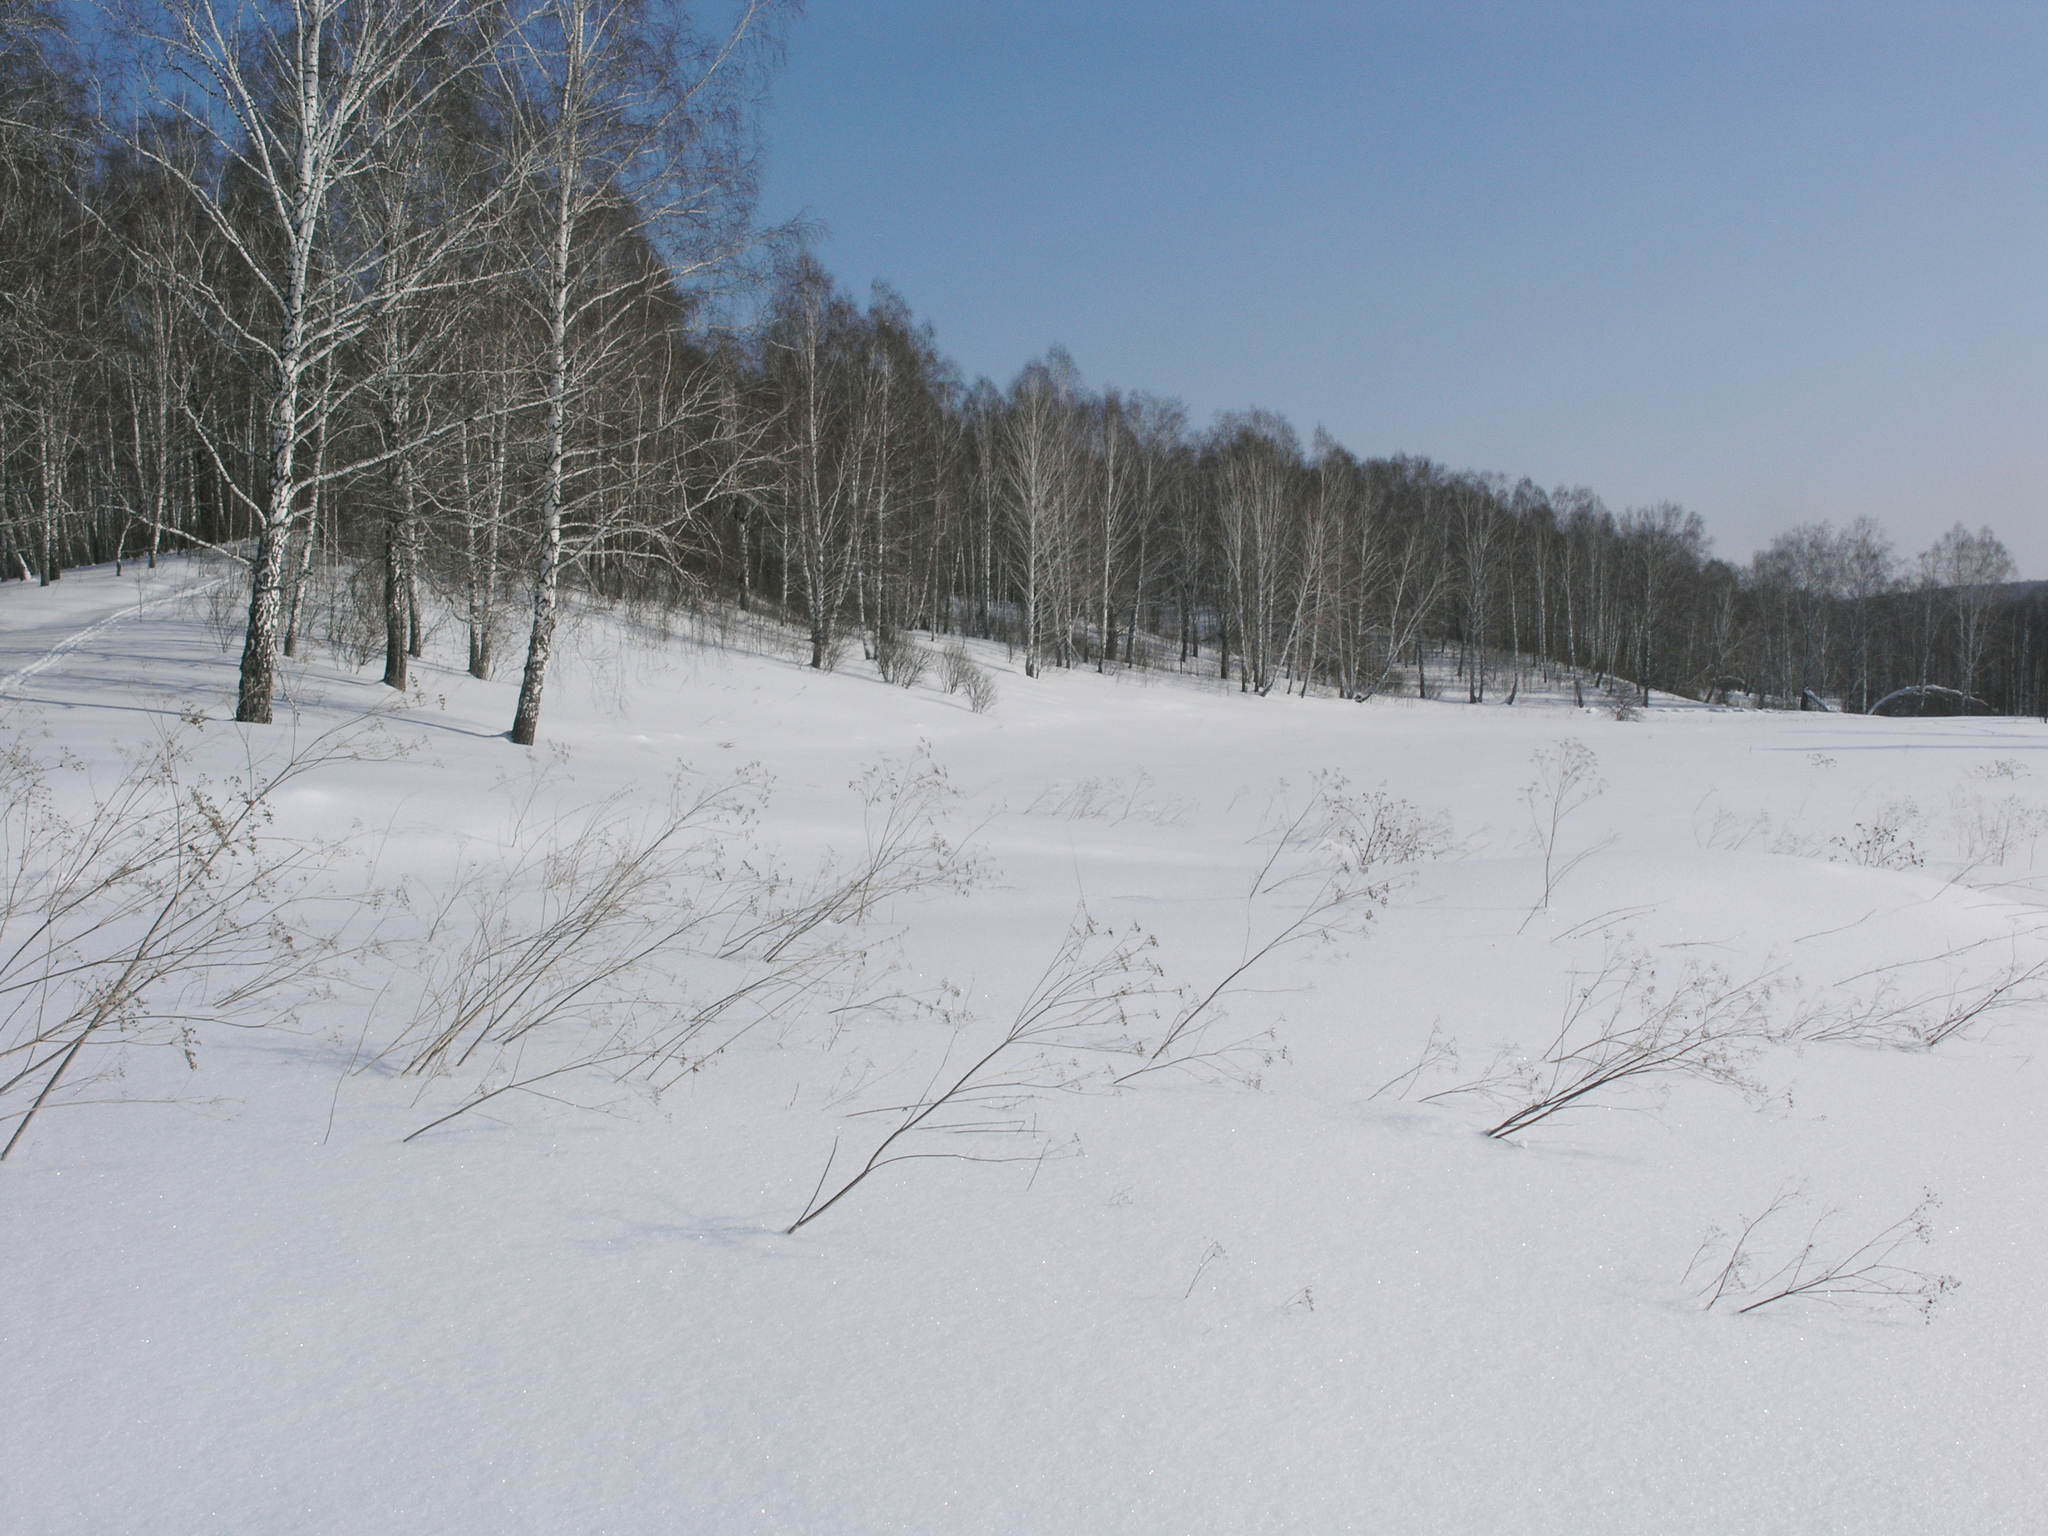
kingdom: Plantae
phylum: Tracheophyta
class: Magnoliopsida
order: Fagales
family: Betulaceae
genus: Betula
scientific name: Betula pendula
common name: Silver birch
